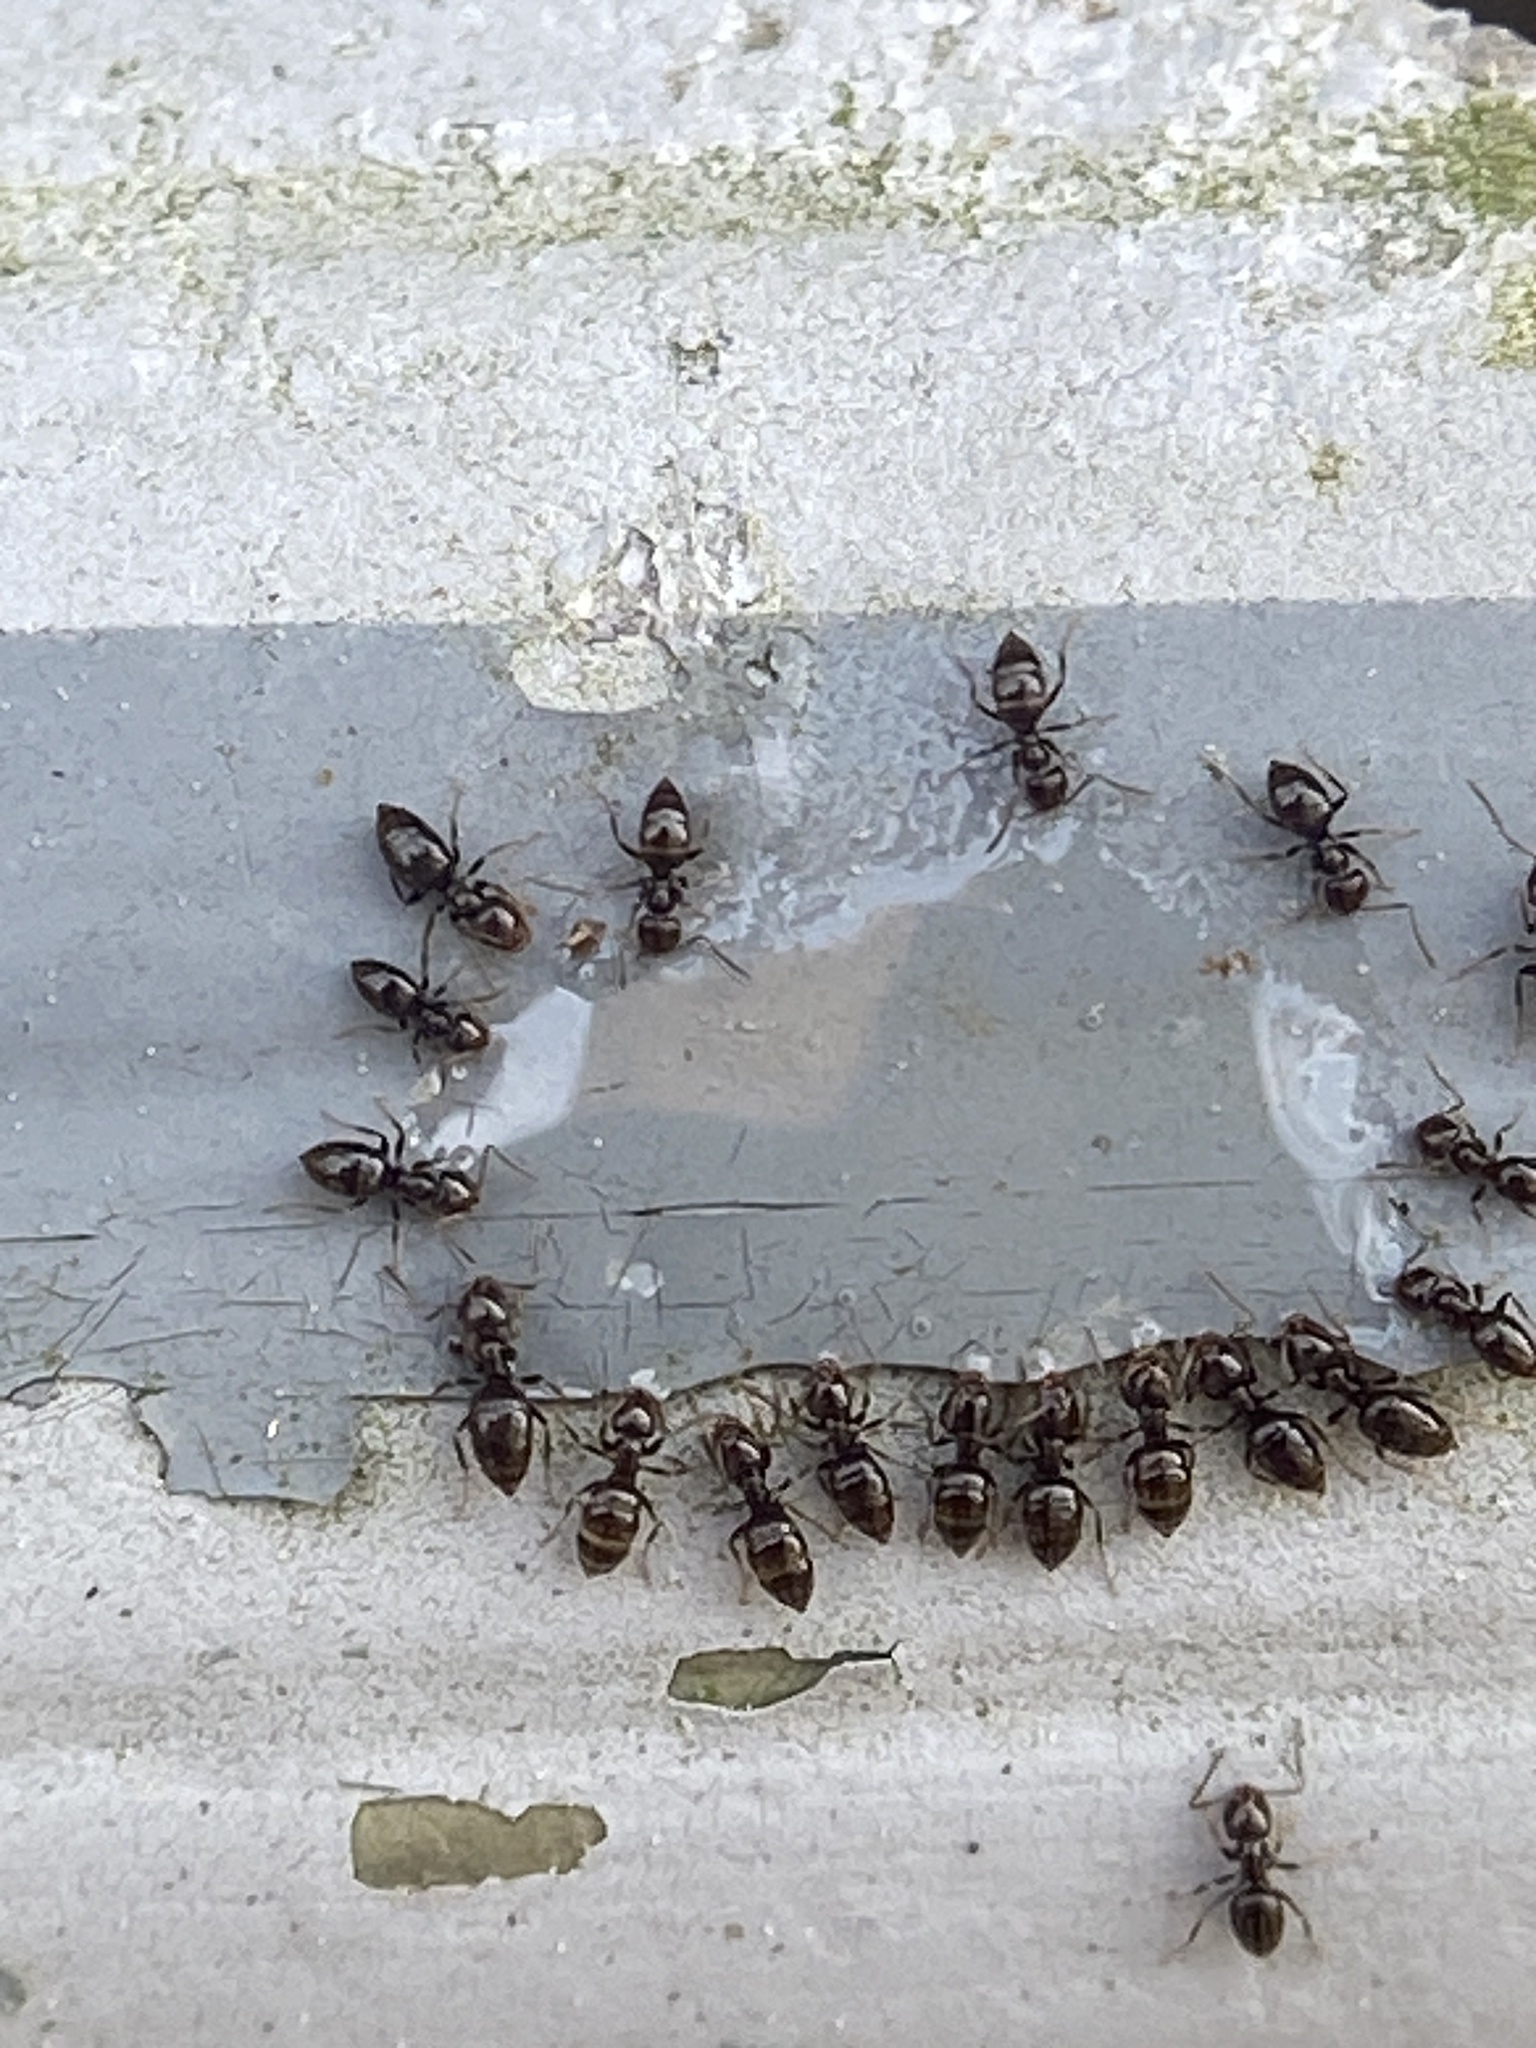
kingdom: Animalia
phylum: Arthropoda
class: Insecta
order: Hymenoptera
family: Formicidae
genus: Brachymyrmex
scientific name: Brachymyrmex patagonicus
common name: Dark rover ant
